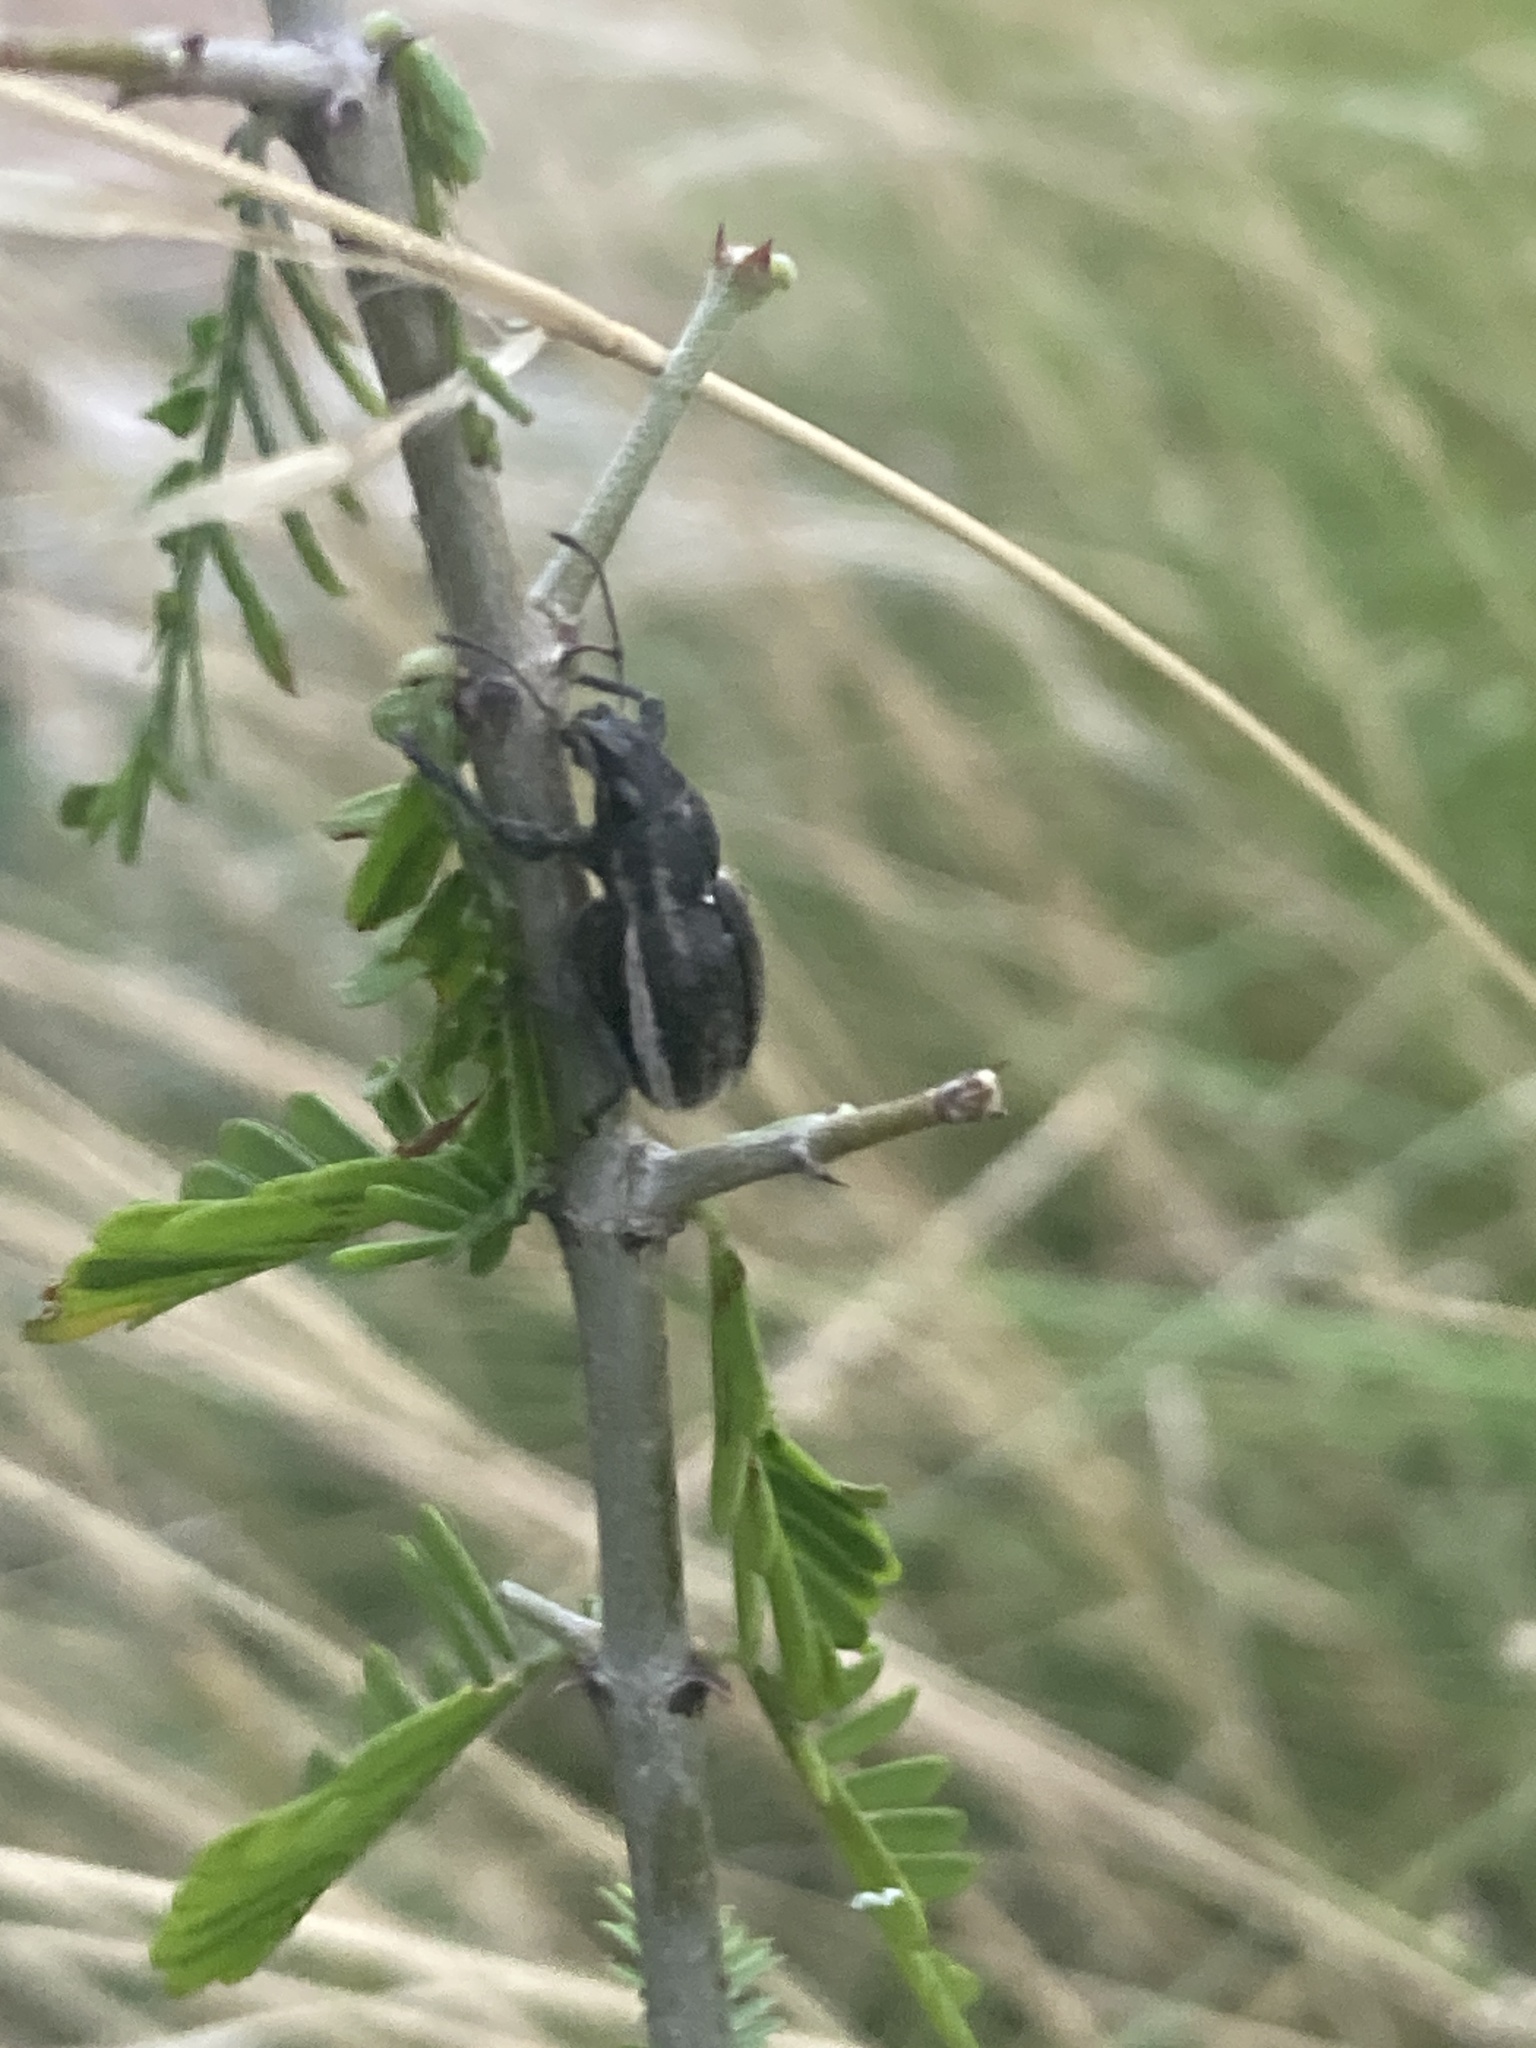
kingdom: Animalia
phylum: Arthropoda
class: Insecta
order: Coleoptera
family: Curculionidae
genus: Naupactus
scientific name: Naupactus leucoloma
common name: Whitefringed beetle
